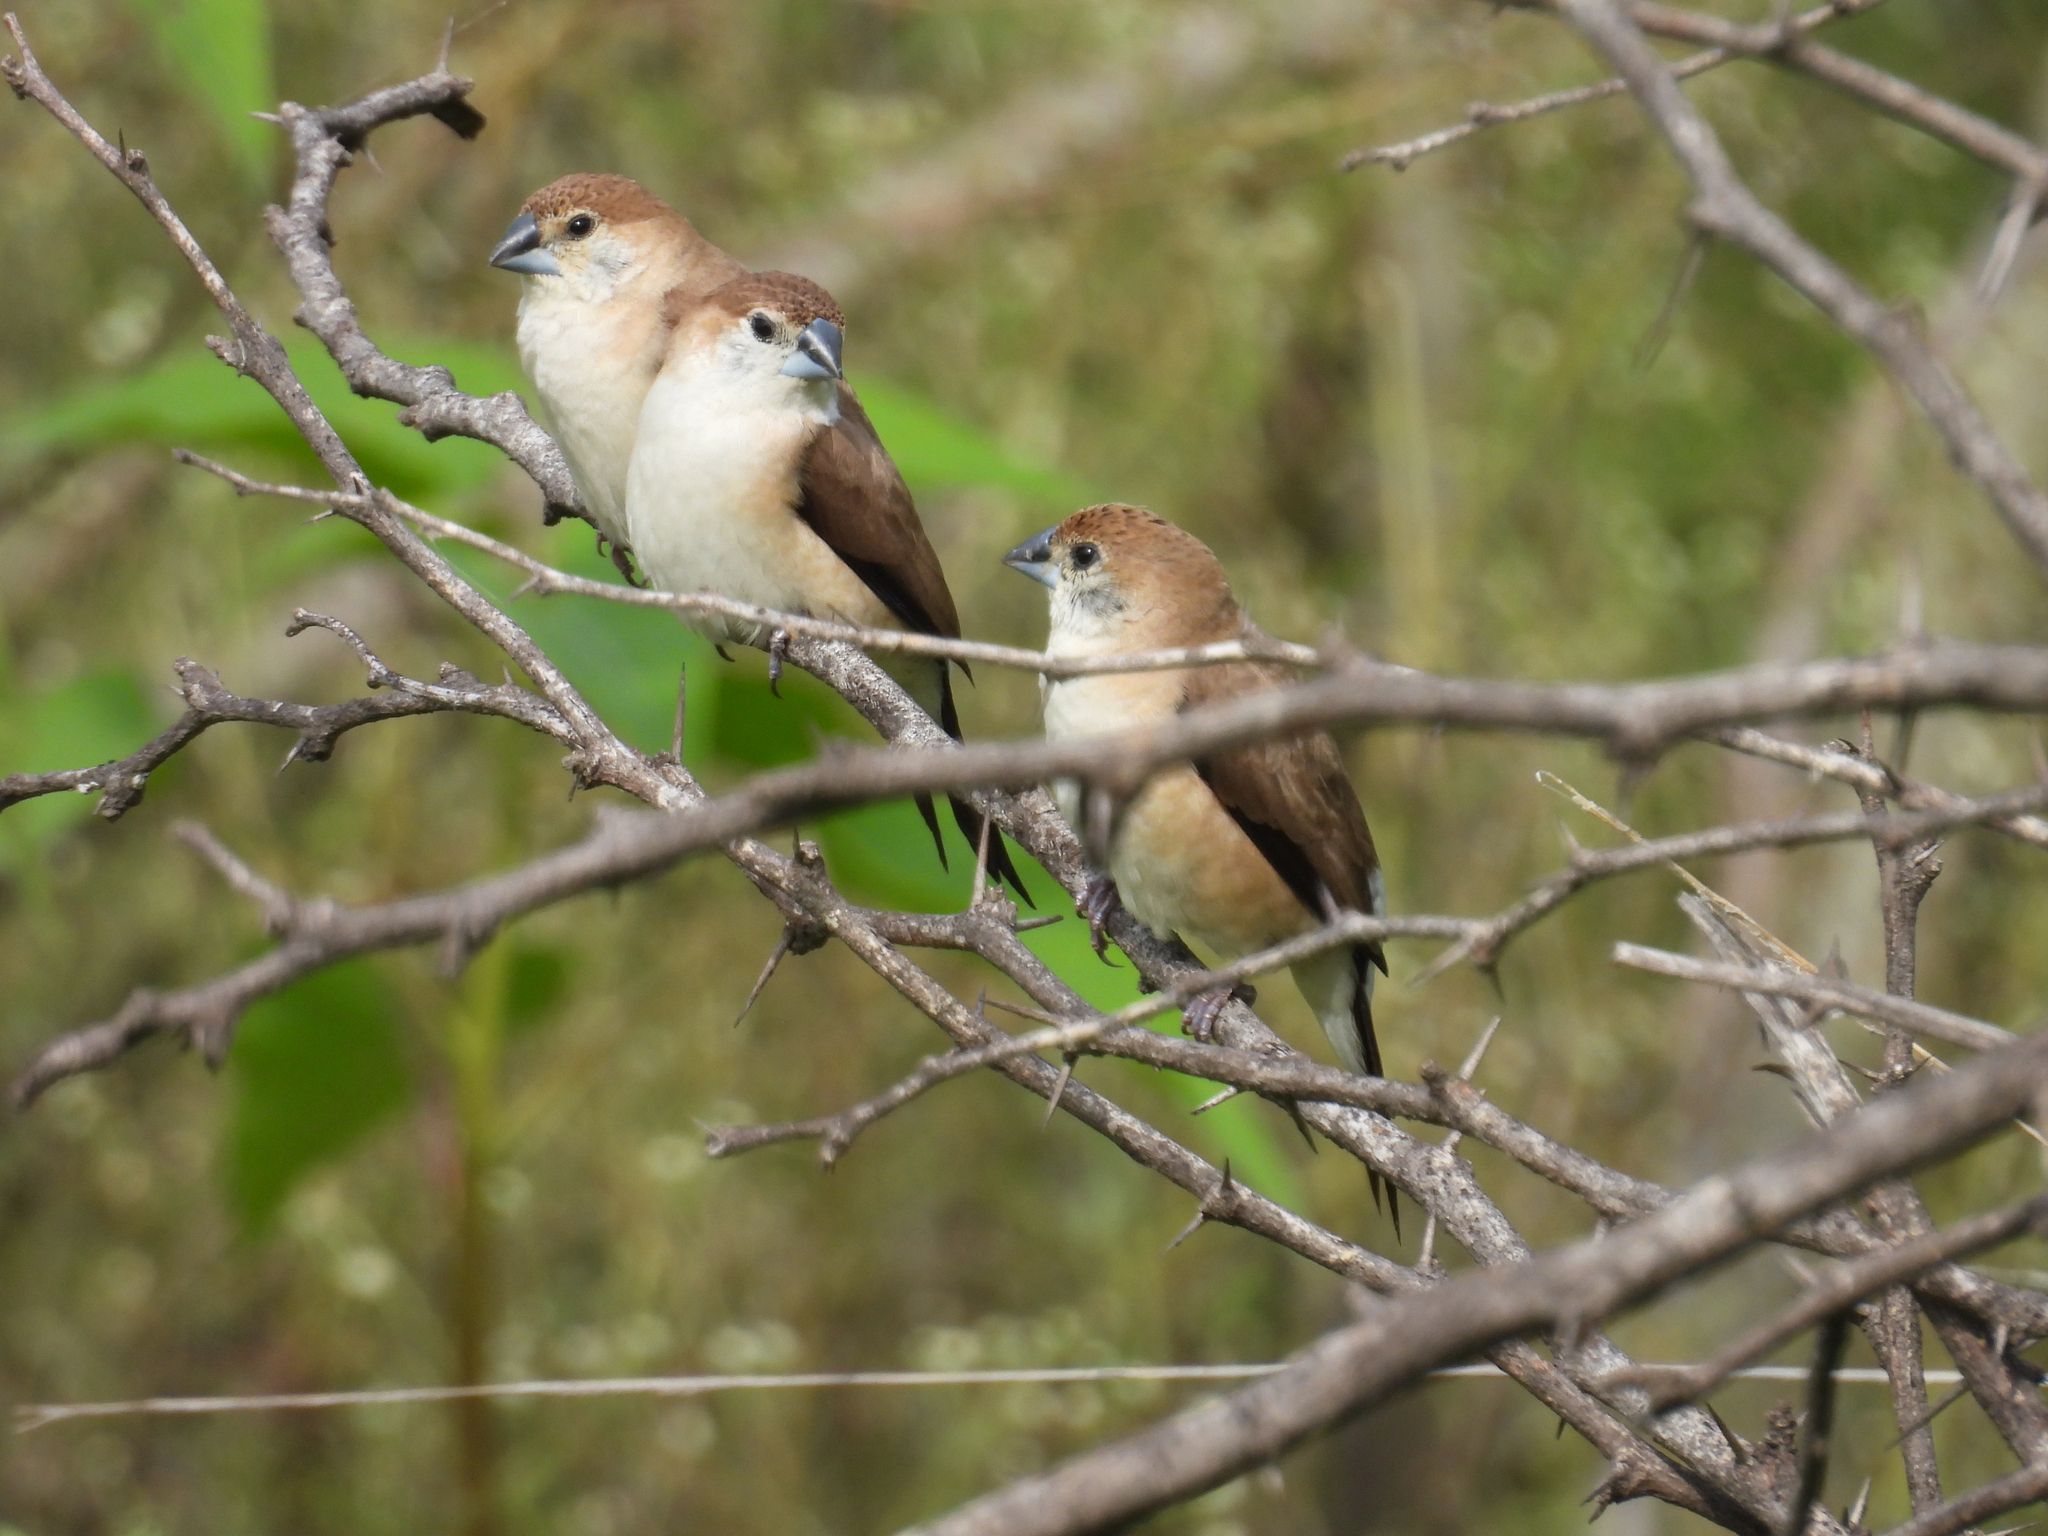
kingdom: Animalia
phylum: Chordata
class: Aves
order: Passeriformes
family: Estrildidae
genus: Euodice
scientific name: Euodice malabarica
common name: Indian silverbill
